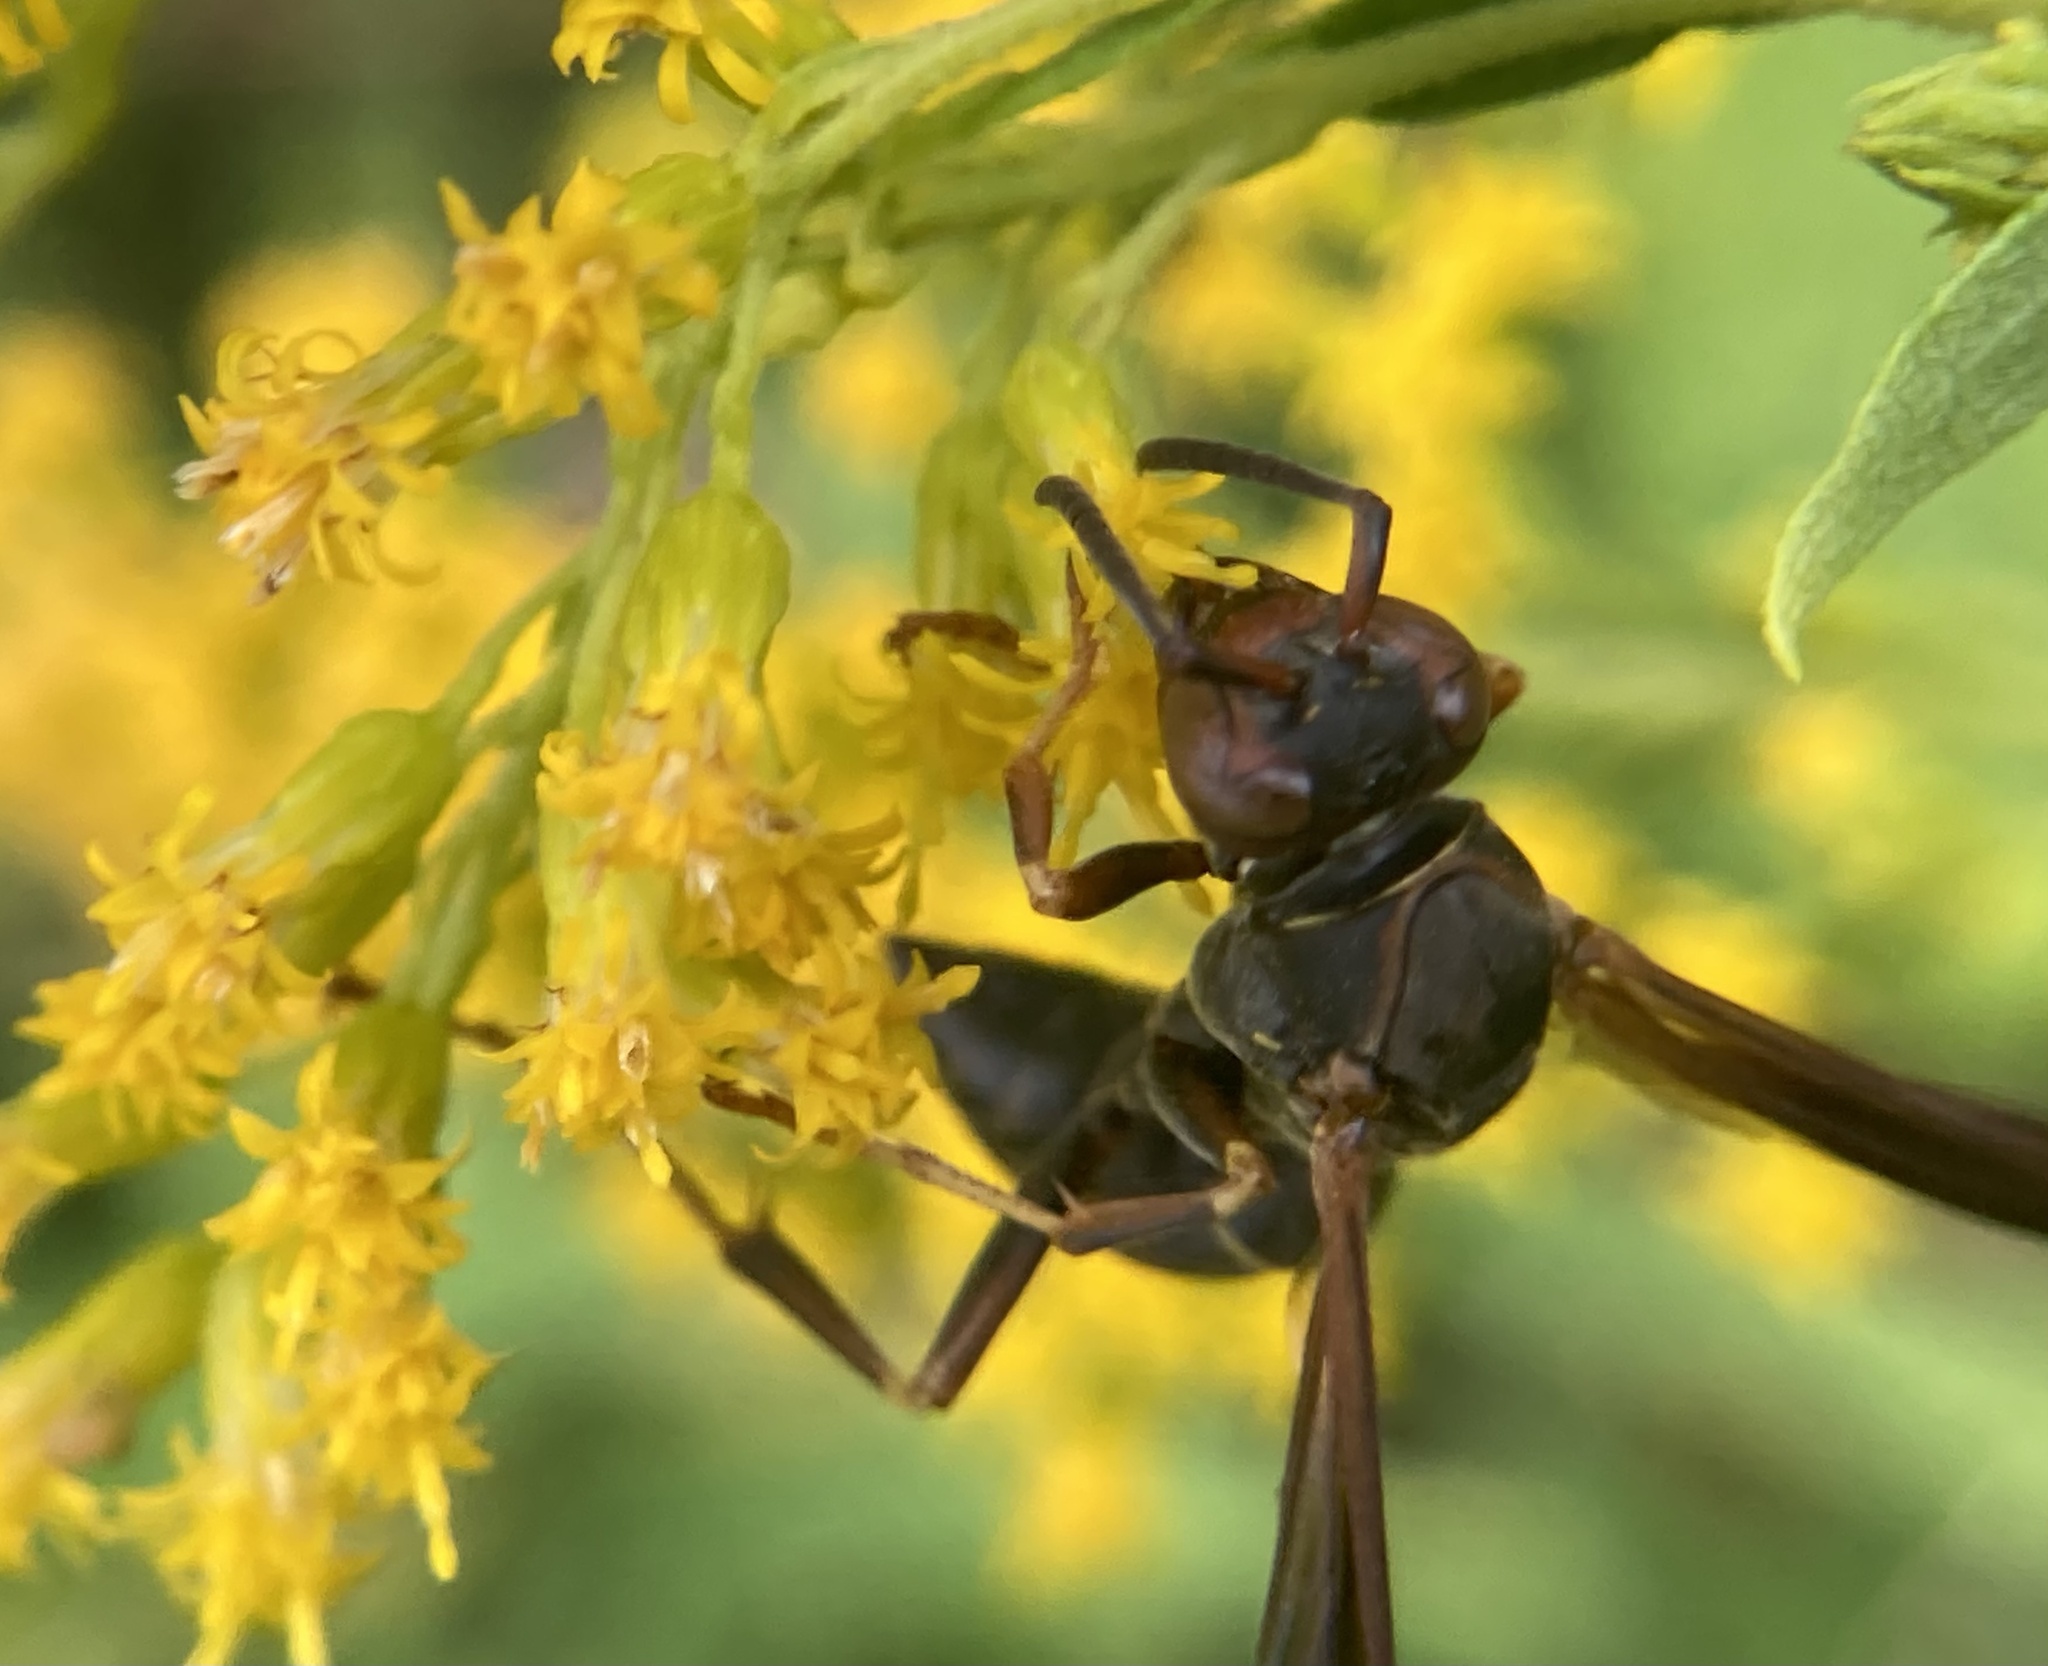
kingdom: Animalia
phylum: Arthropoda
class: Insecta
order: Hymenoptera
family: Eumenidae
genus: Polistes
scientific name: Polistes fuscatus
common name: Dark paper wasp
